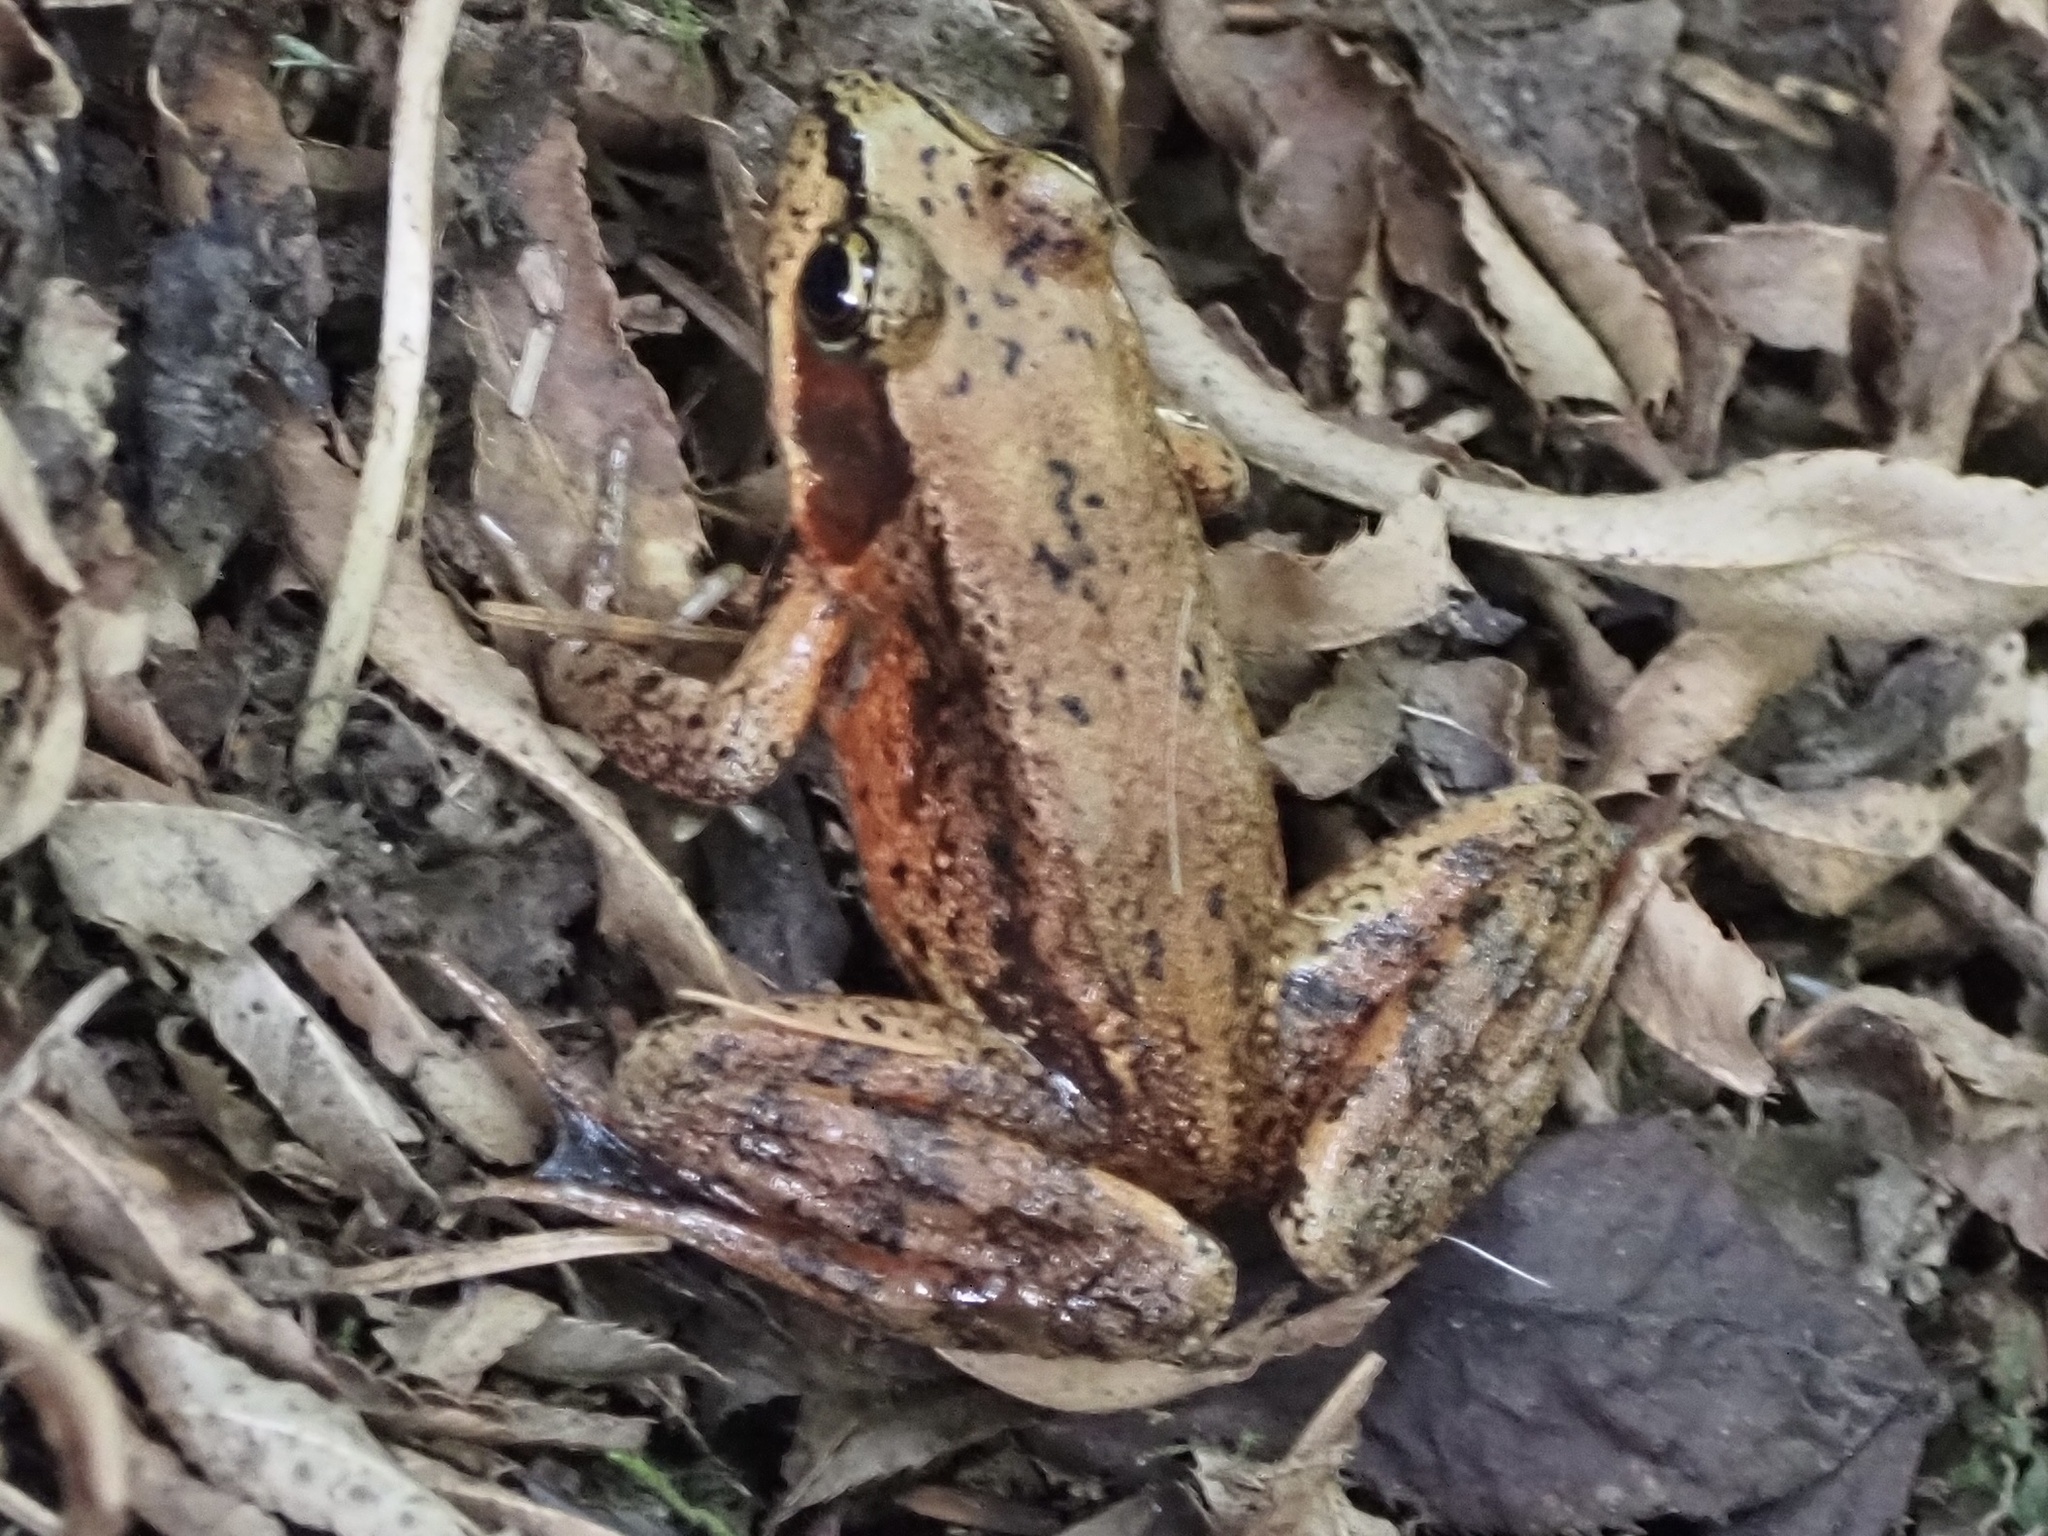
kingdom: Animalia
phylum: Chordata
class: Amphibia
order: Anura
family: Ranidae
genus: Rana
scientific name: Rana aurora
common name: Red-legged frog
